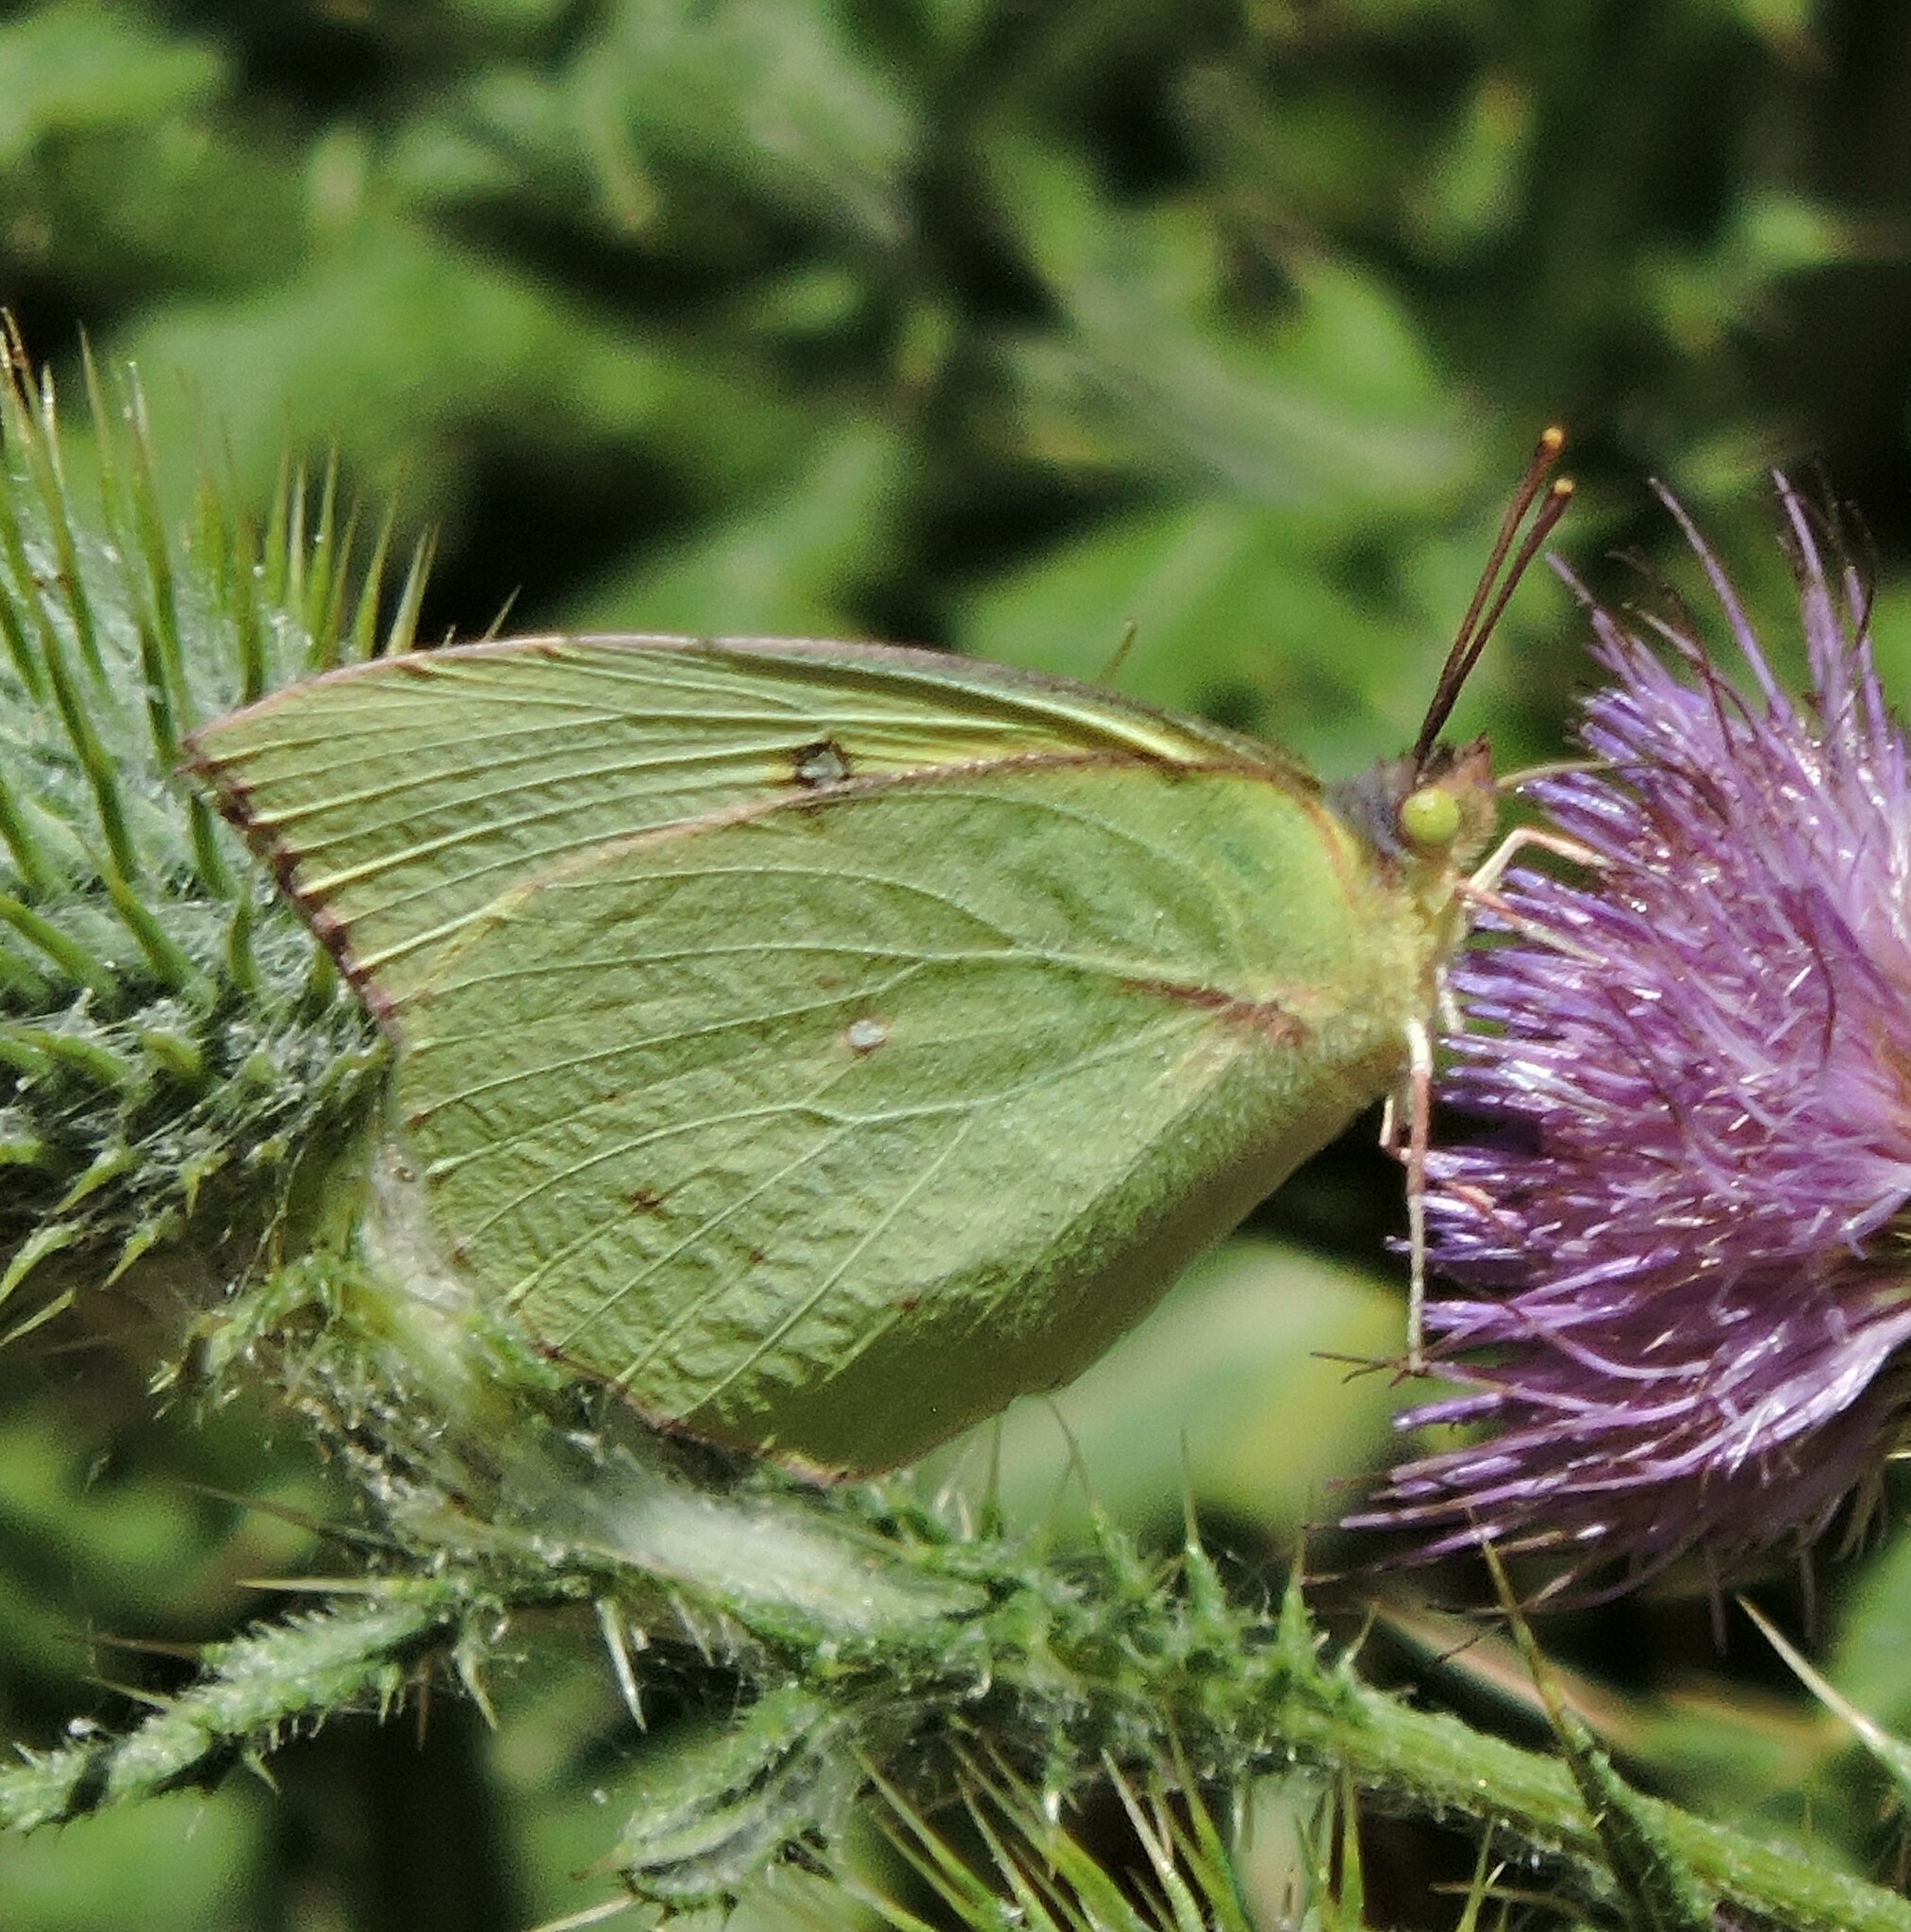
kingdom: Animalia
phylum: Arthropoda
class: Insecta
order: Lepidoptera
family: Pieridae
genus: Zerene
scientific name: Zerene eurydice
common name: California dogface
